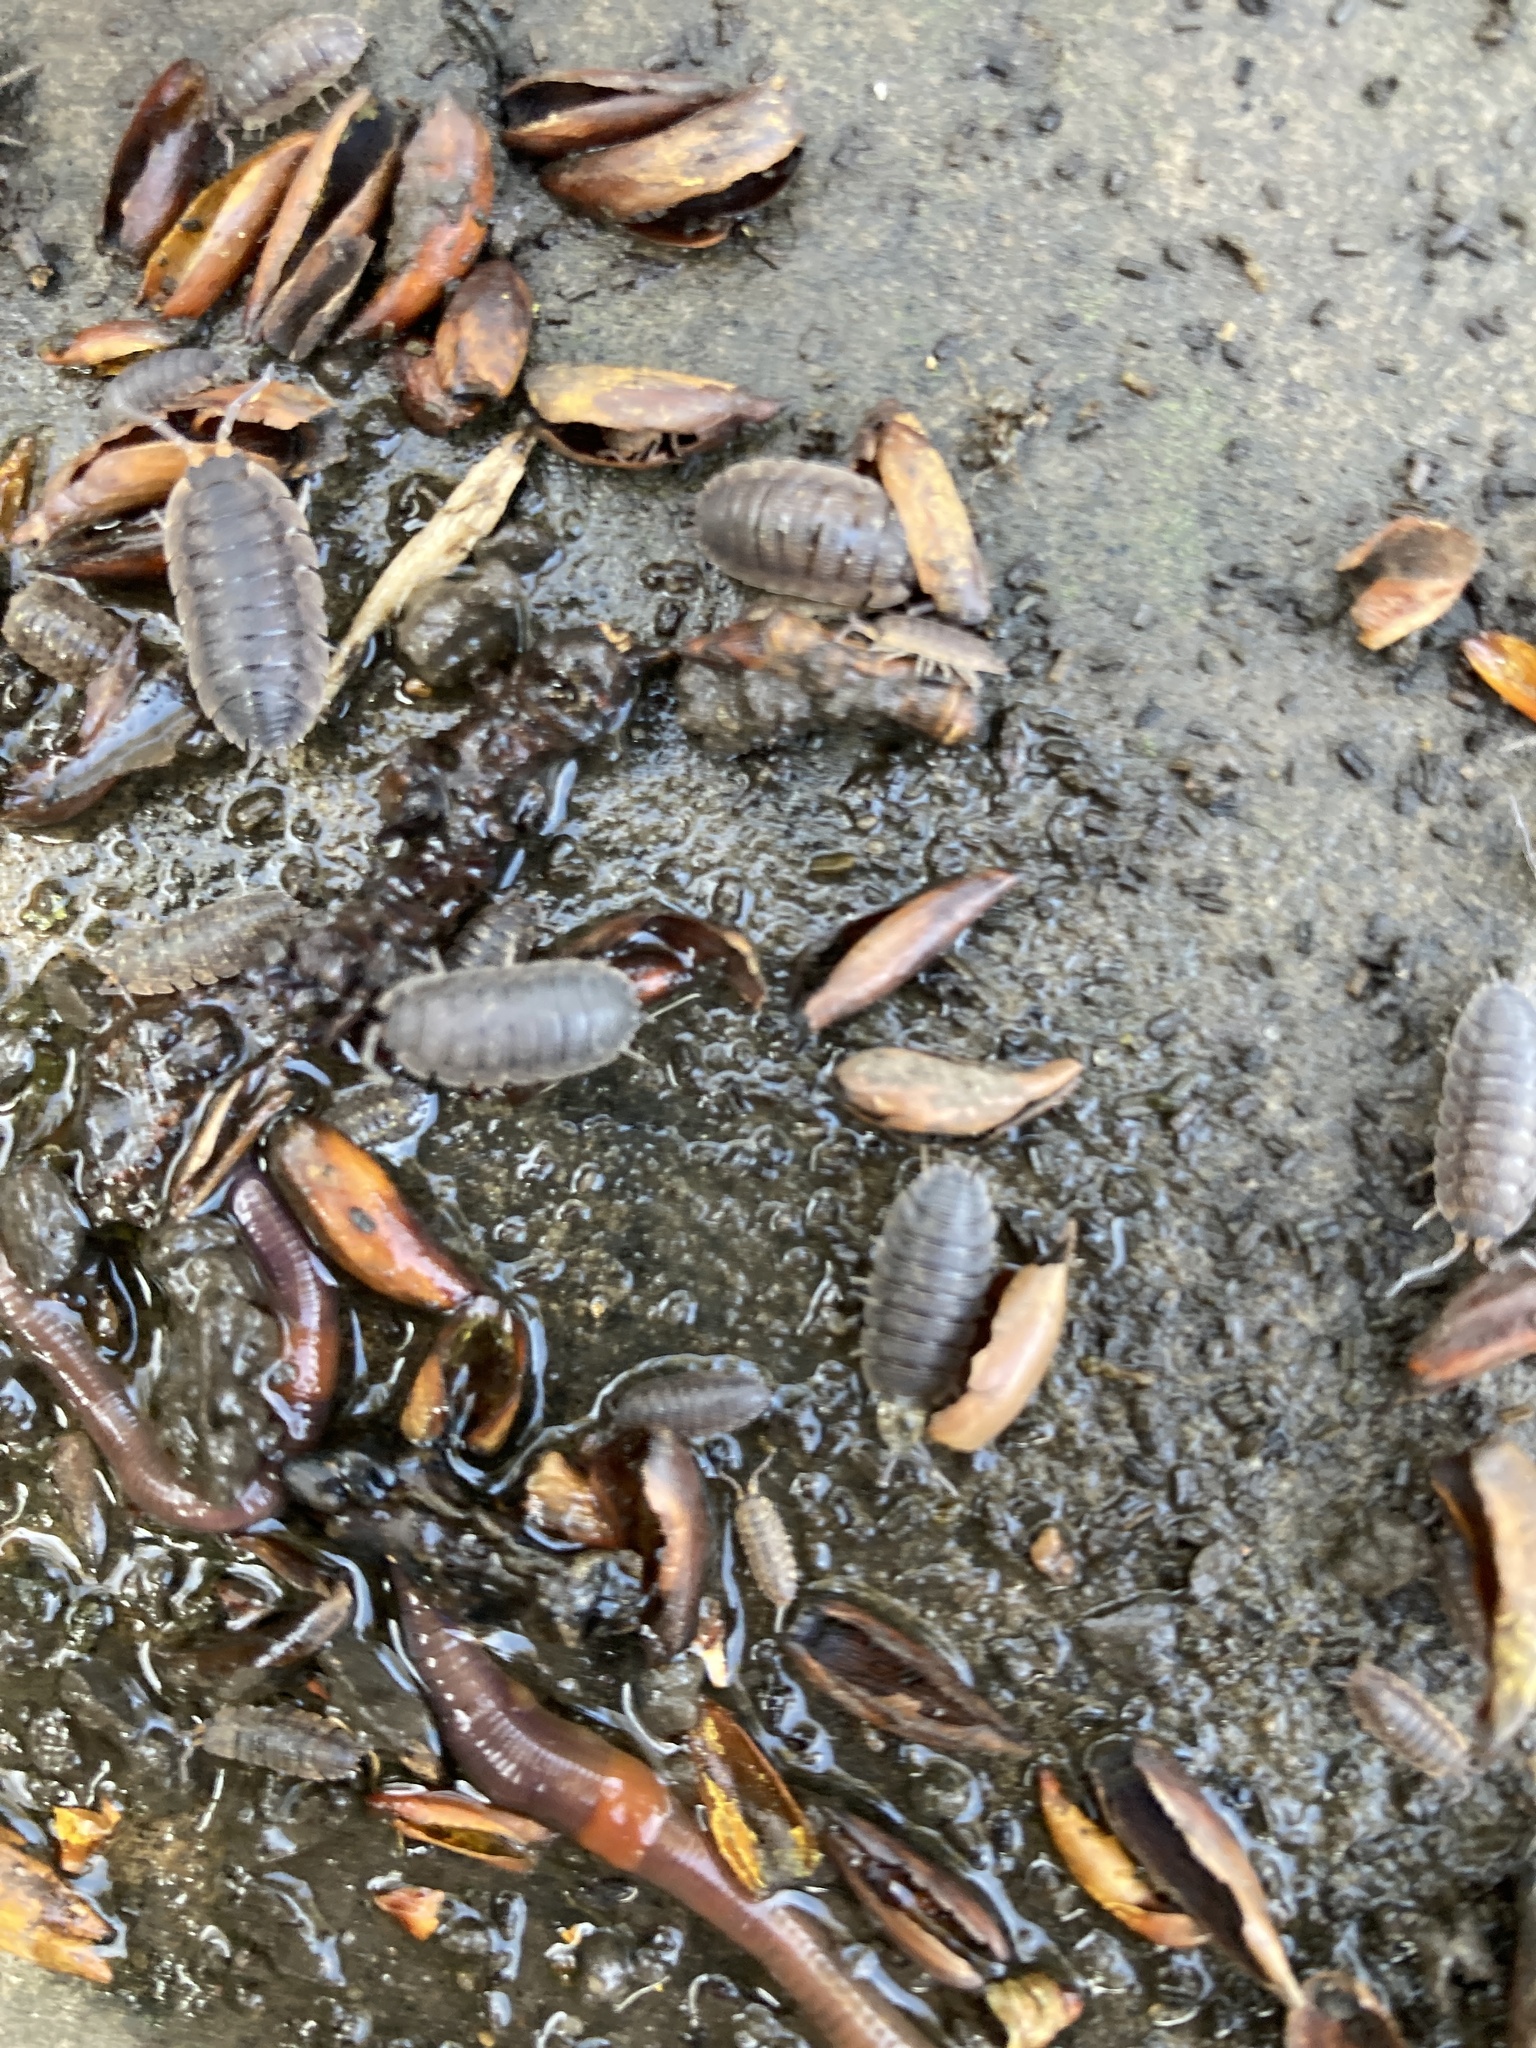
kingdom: Animalia
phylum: Arthropoda
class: Malacostraca
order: Isopoda
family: Porcellionidae
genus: Porcellio
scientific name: Porcellio scaber
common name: Common rough woodlouse
